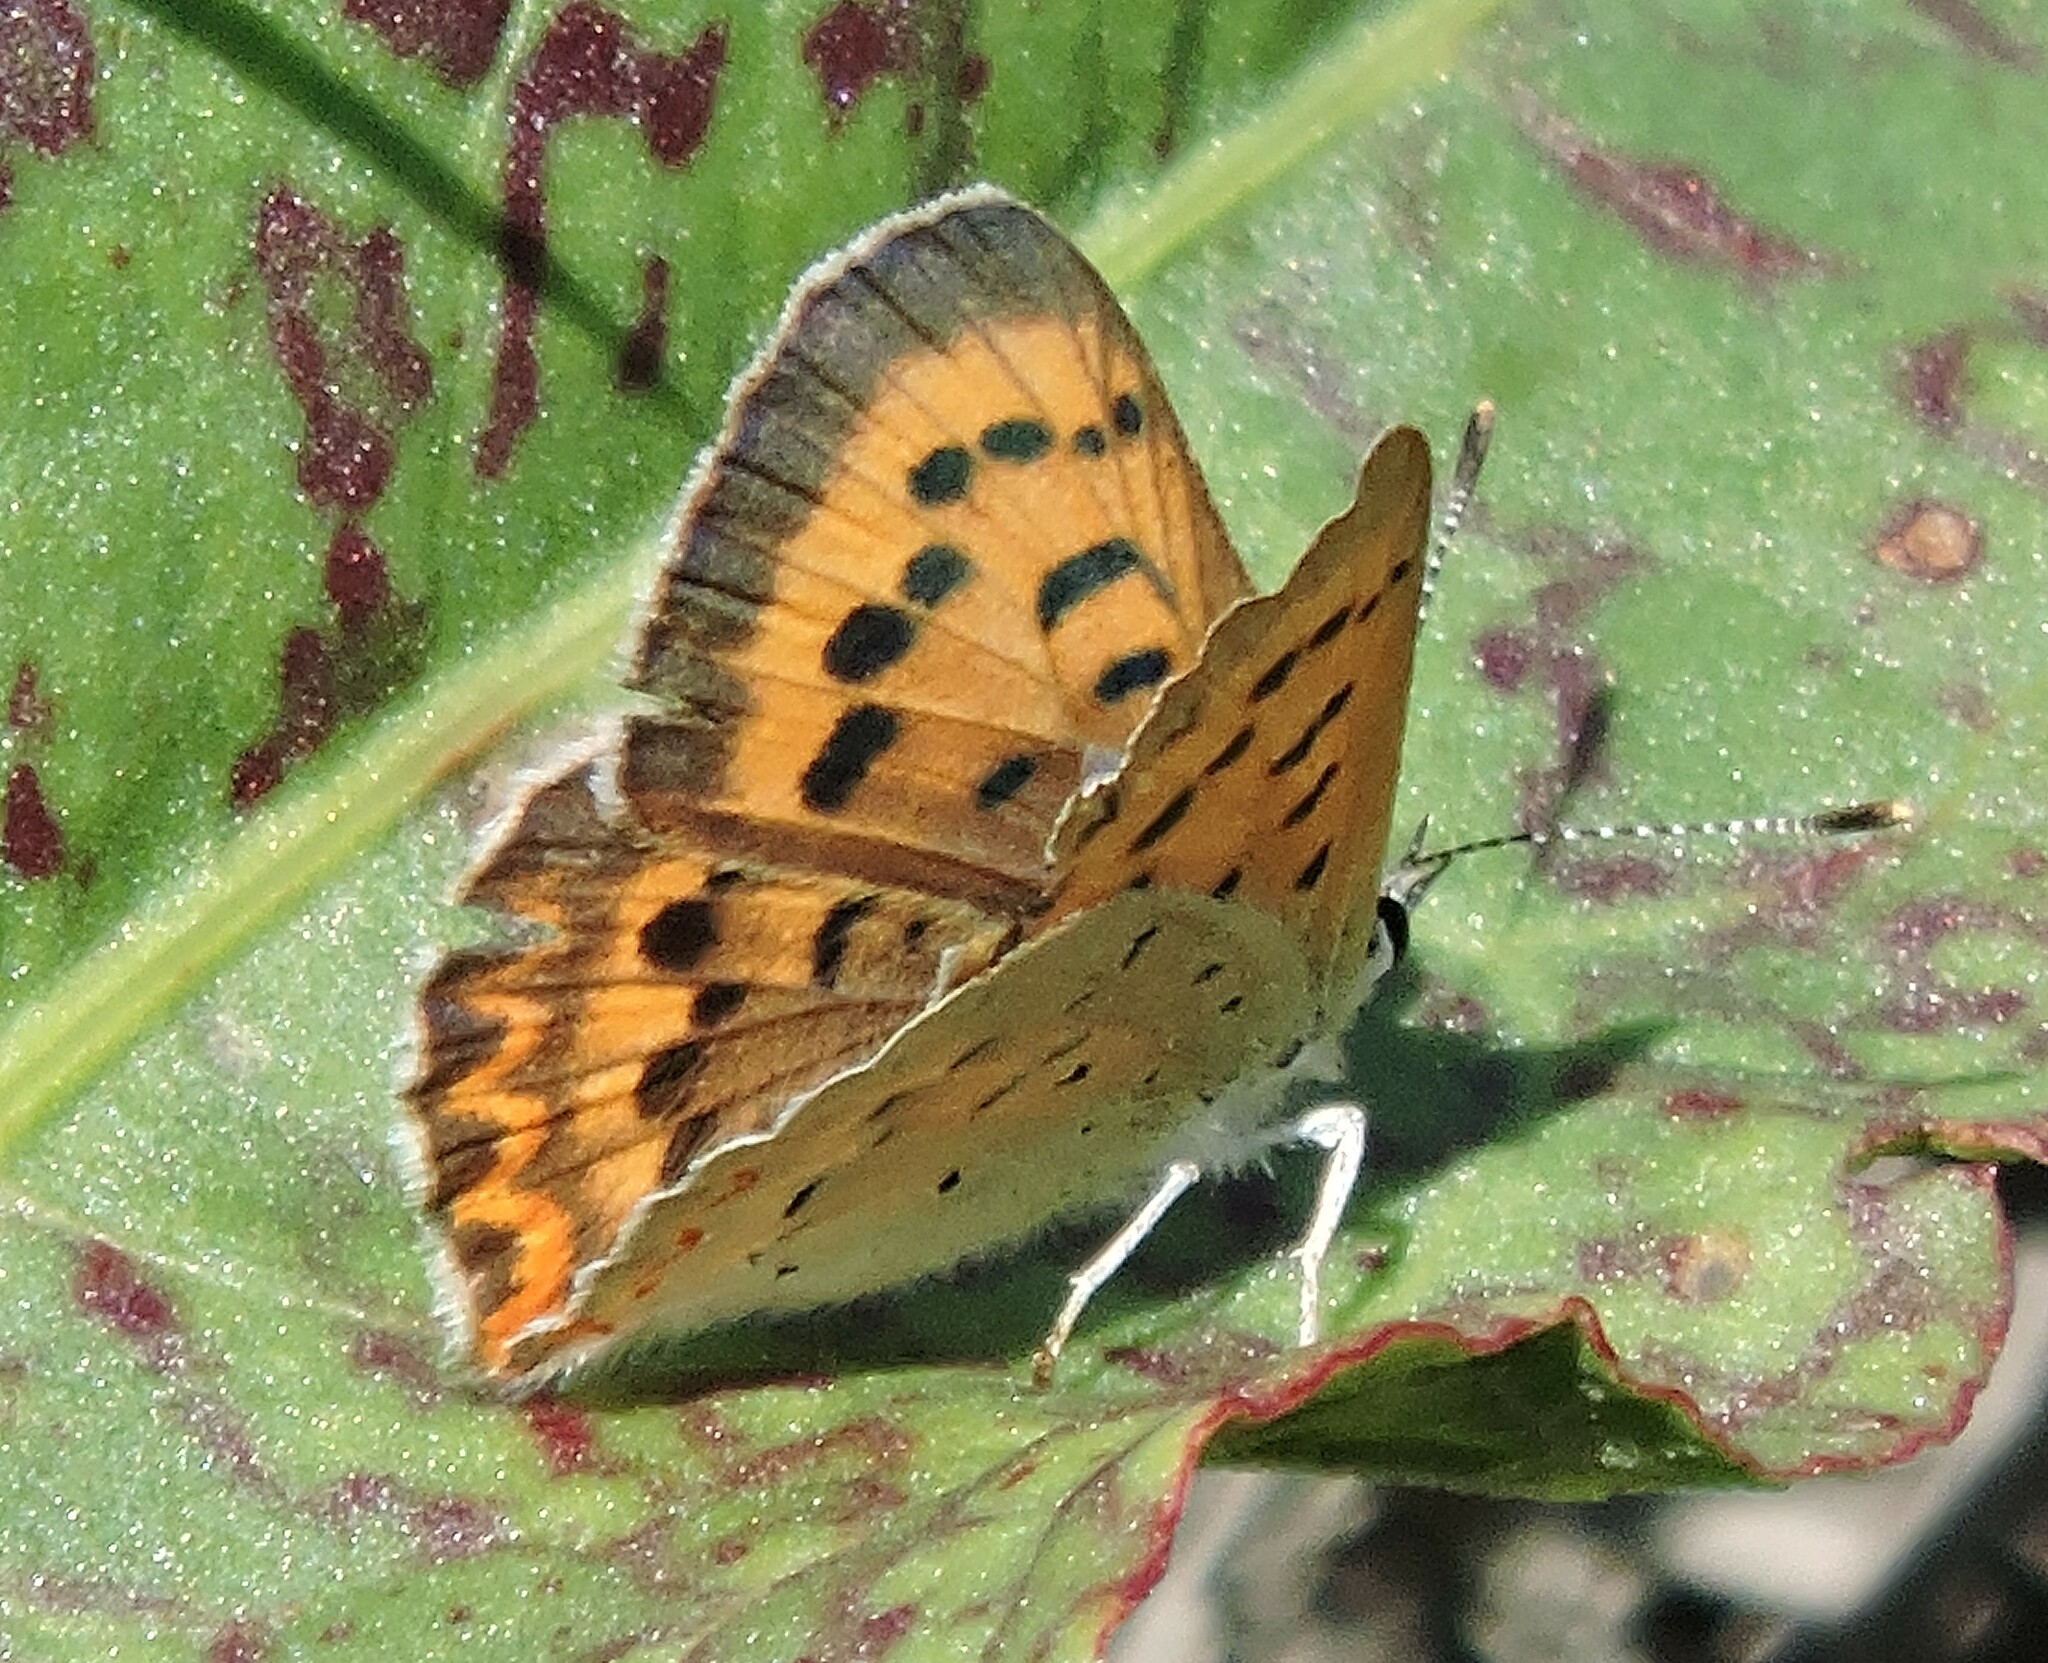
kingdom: Animalia
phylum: Arthropoda
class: Insecta
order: Lepidoptera
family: Lycaenidae
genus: Tharsalea
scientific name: Tharsalea helloides
